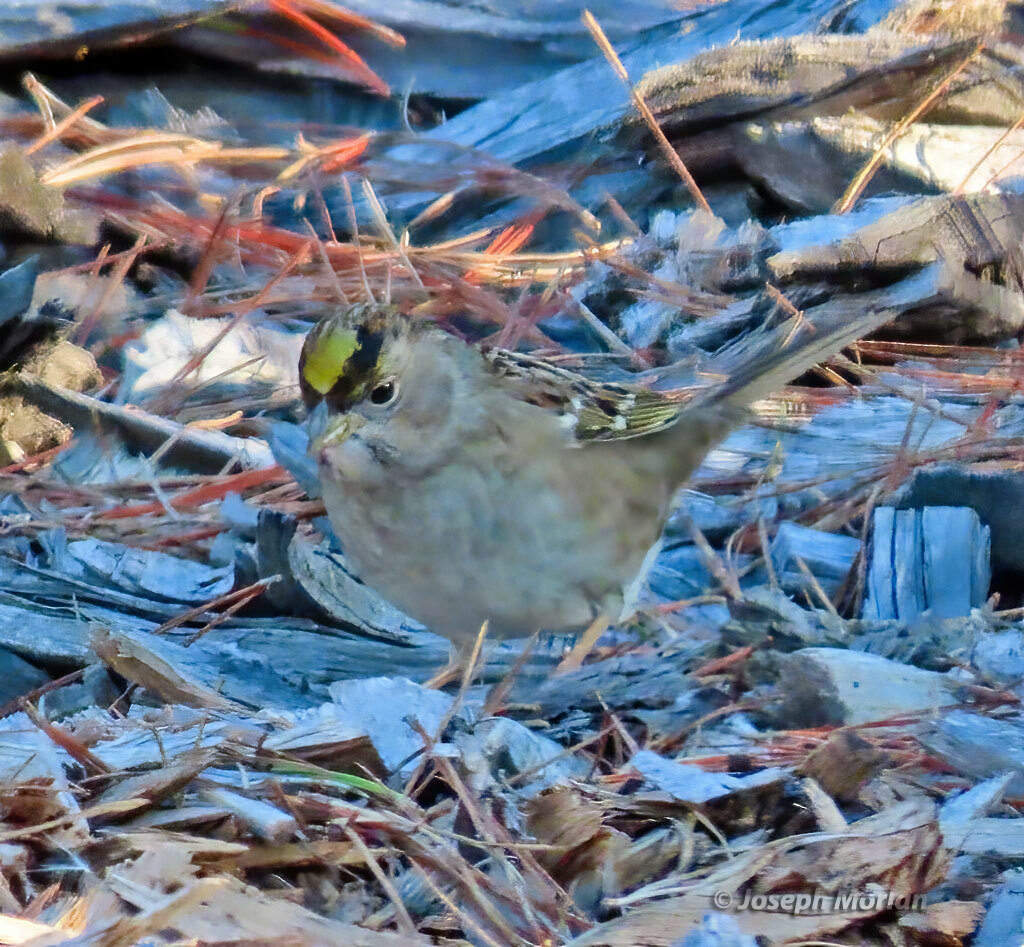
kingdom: Animalia
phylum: Chordata
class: Aves
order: Passeriformes
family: Passerellidae
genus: Zonotrichia
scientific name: Zonotrichia atricapilla
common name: Golden-crowned sparrow
